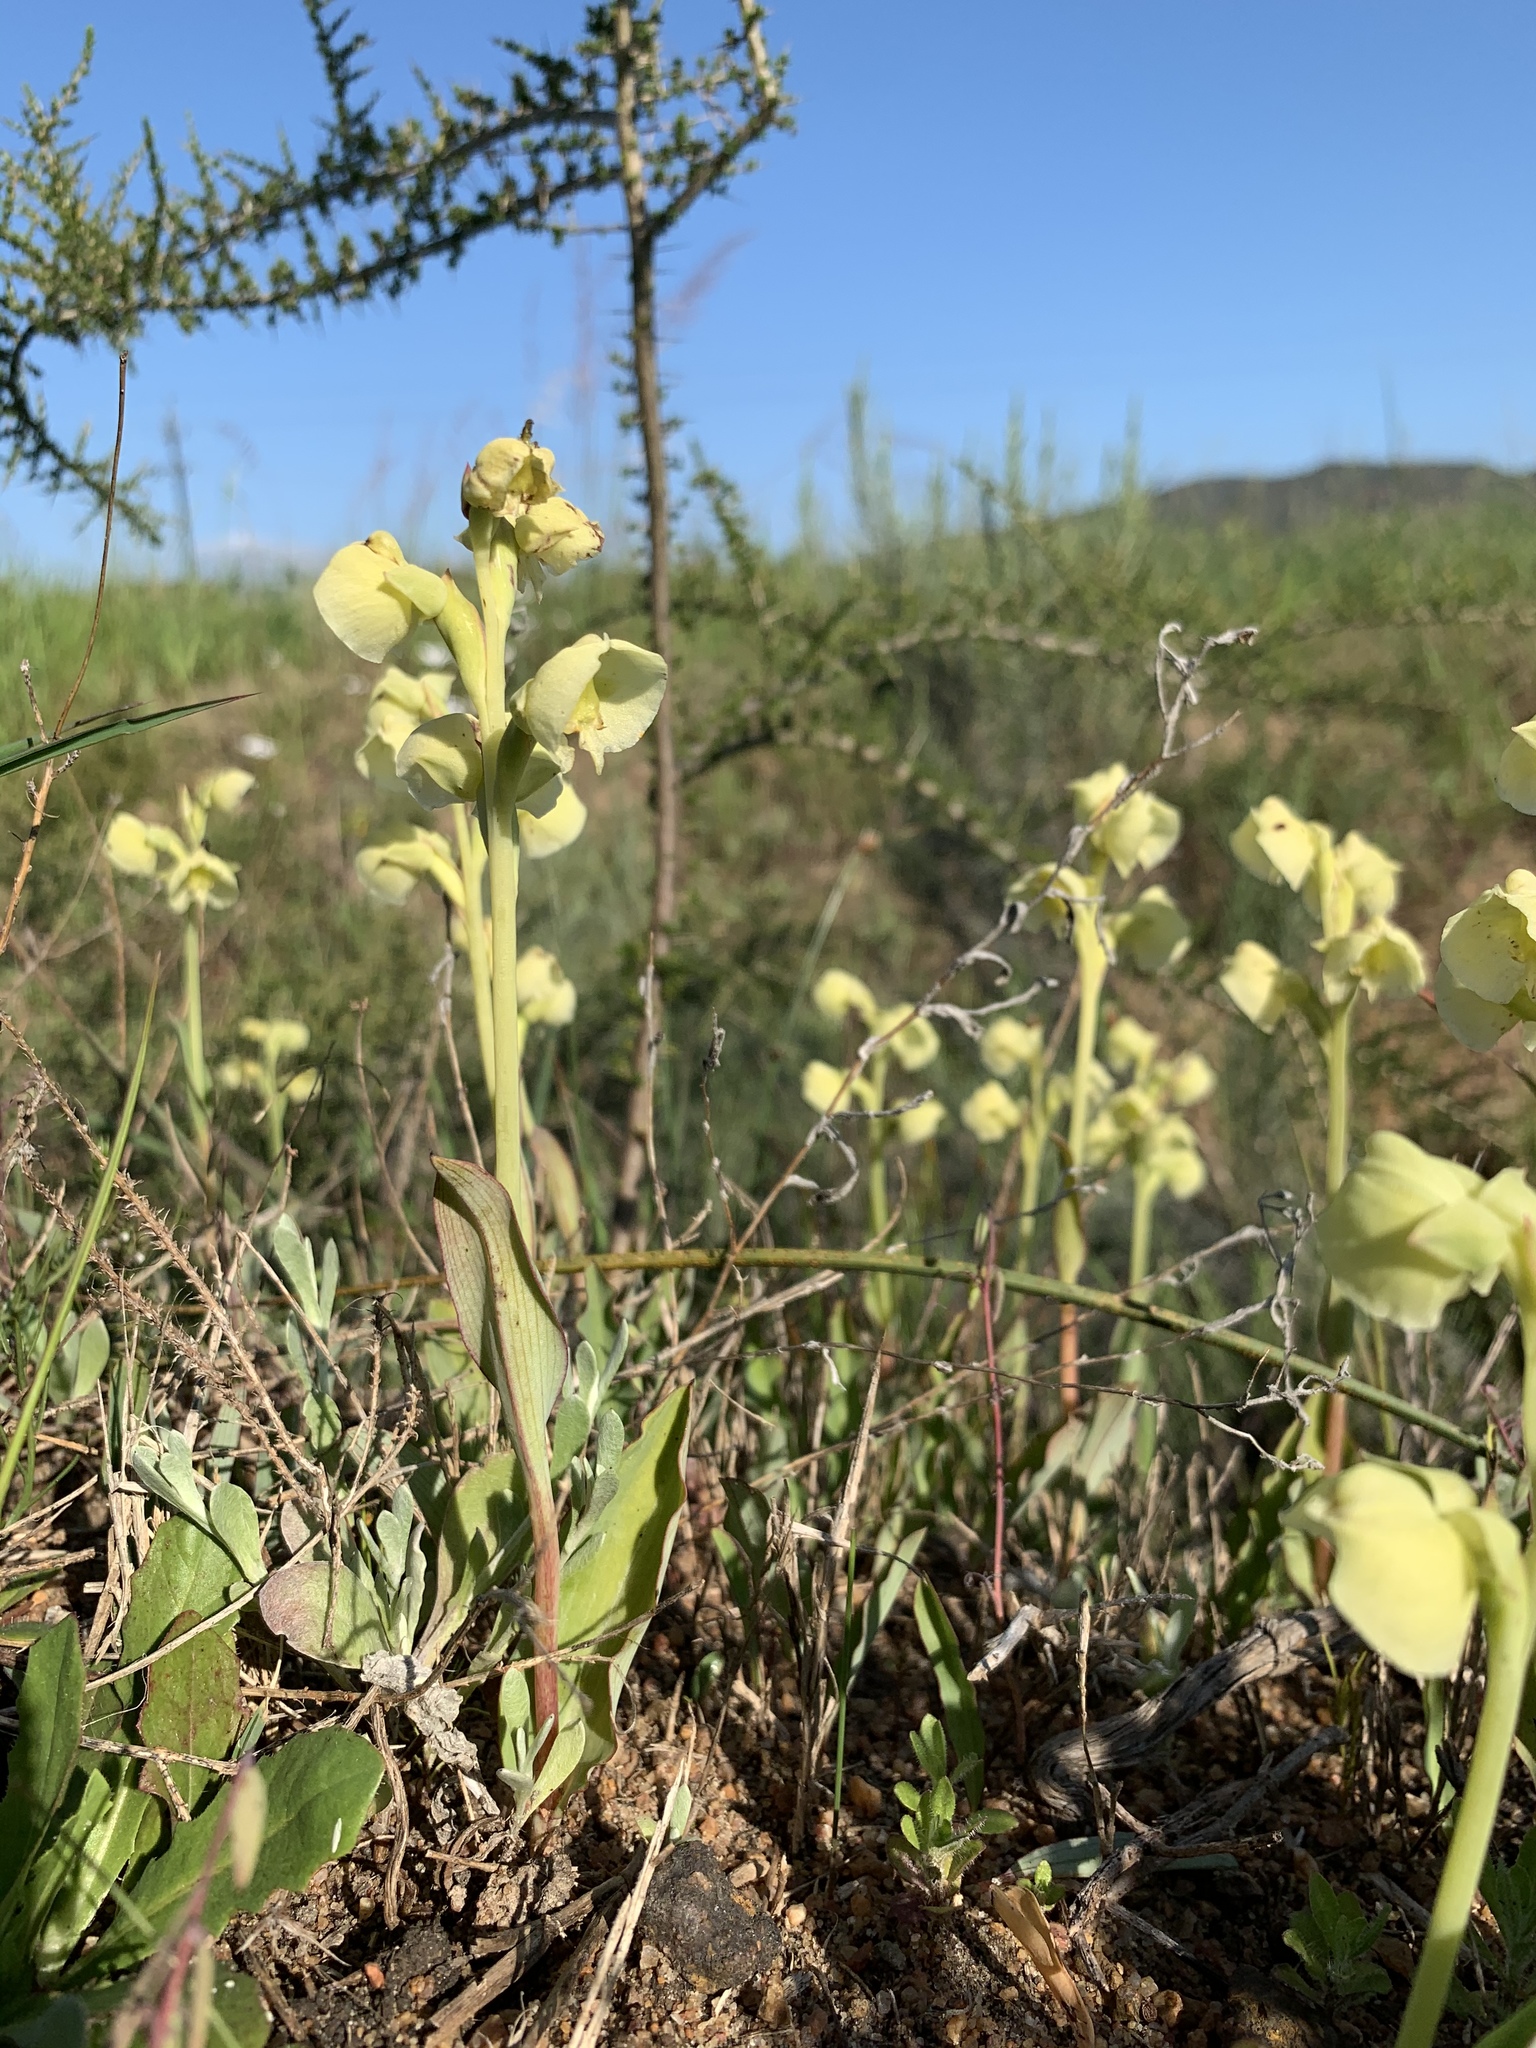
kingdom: Plantae
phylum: Tracheophyta
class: Liliopsida
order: Asparagales
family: Orchidaceae
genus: Pterygodium
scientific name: Pterygodium catholicum
